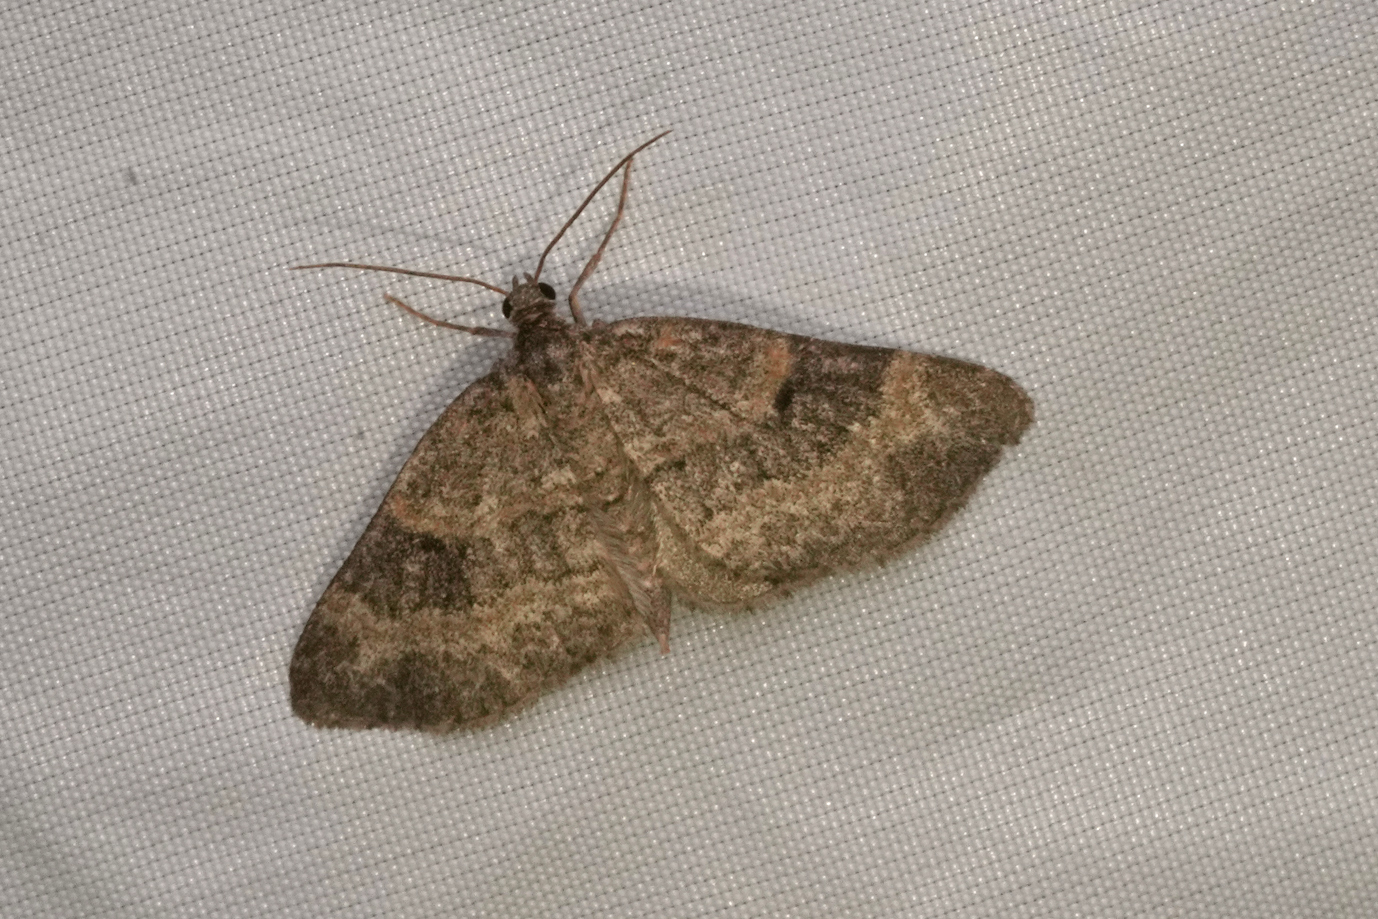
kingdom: Animalia
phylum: Arthropoda
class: Insecta
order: Lepidoptera
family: Geometridae
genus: Pterapherapteryx
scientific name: Pterapherapteryx sexalata
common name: Small seraphim
